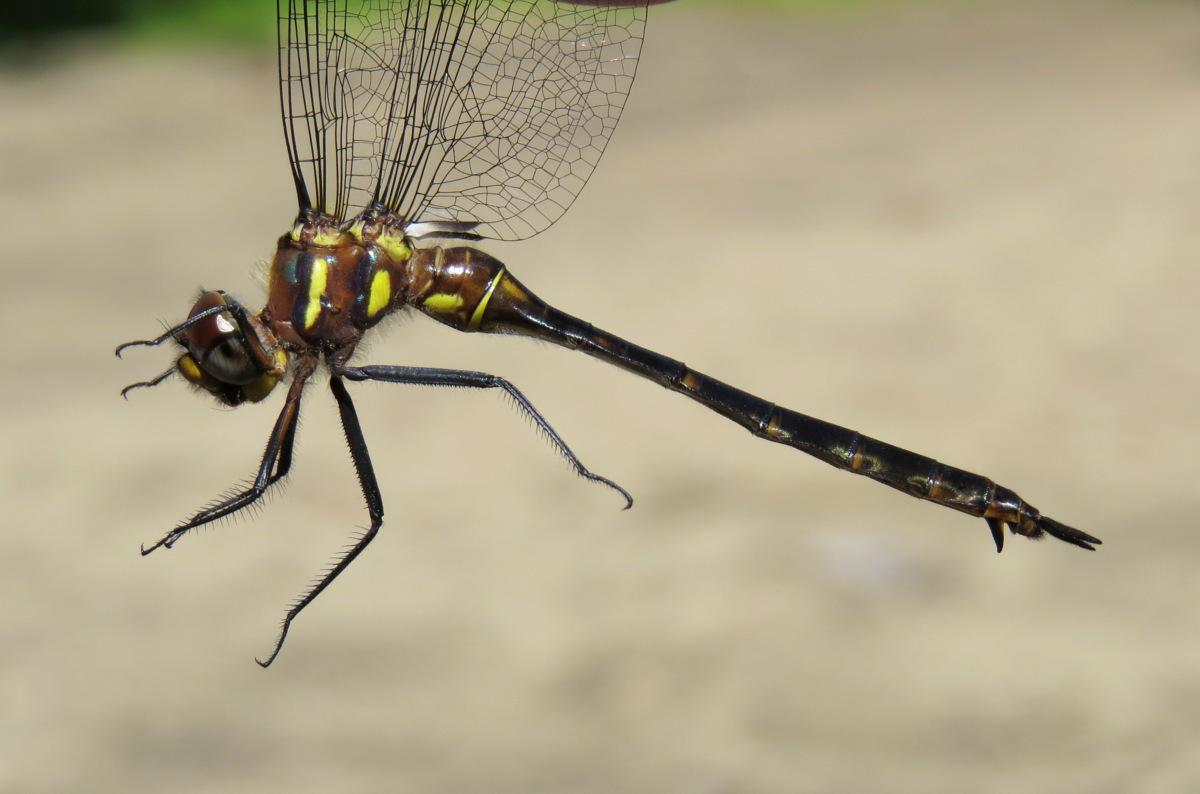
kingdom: Animalia
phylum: Arthropoda
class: Insecta
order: Odonata
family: Corduliidae
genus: Somatochlora
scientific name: Somatochlora tenebrosa
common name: Clamp-tipped emerald
